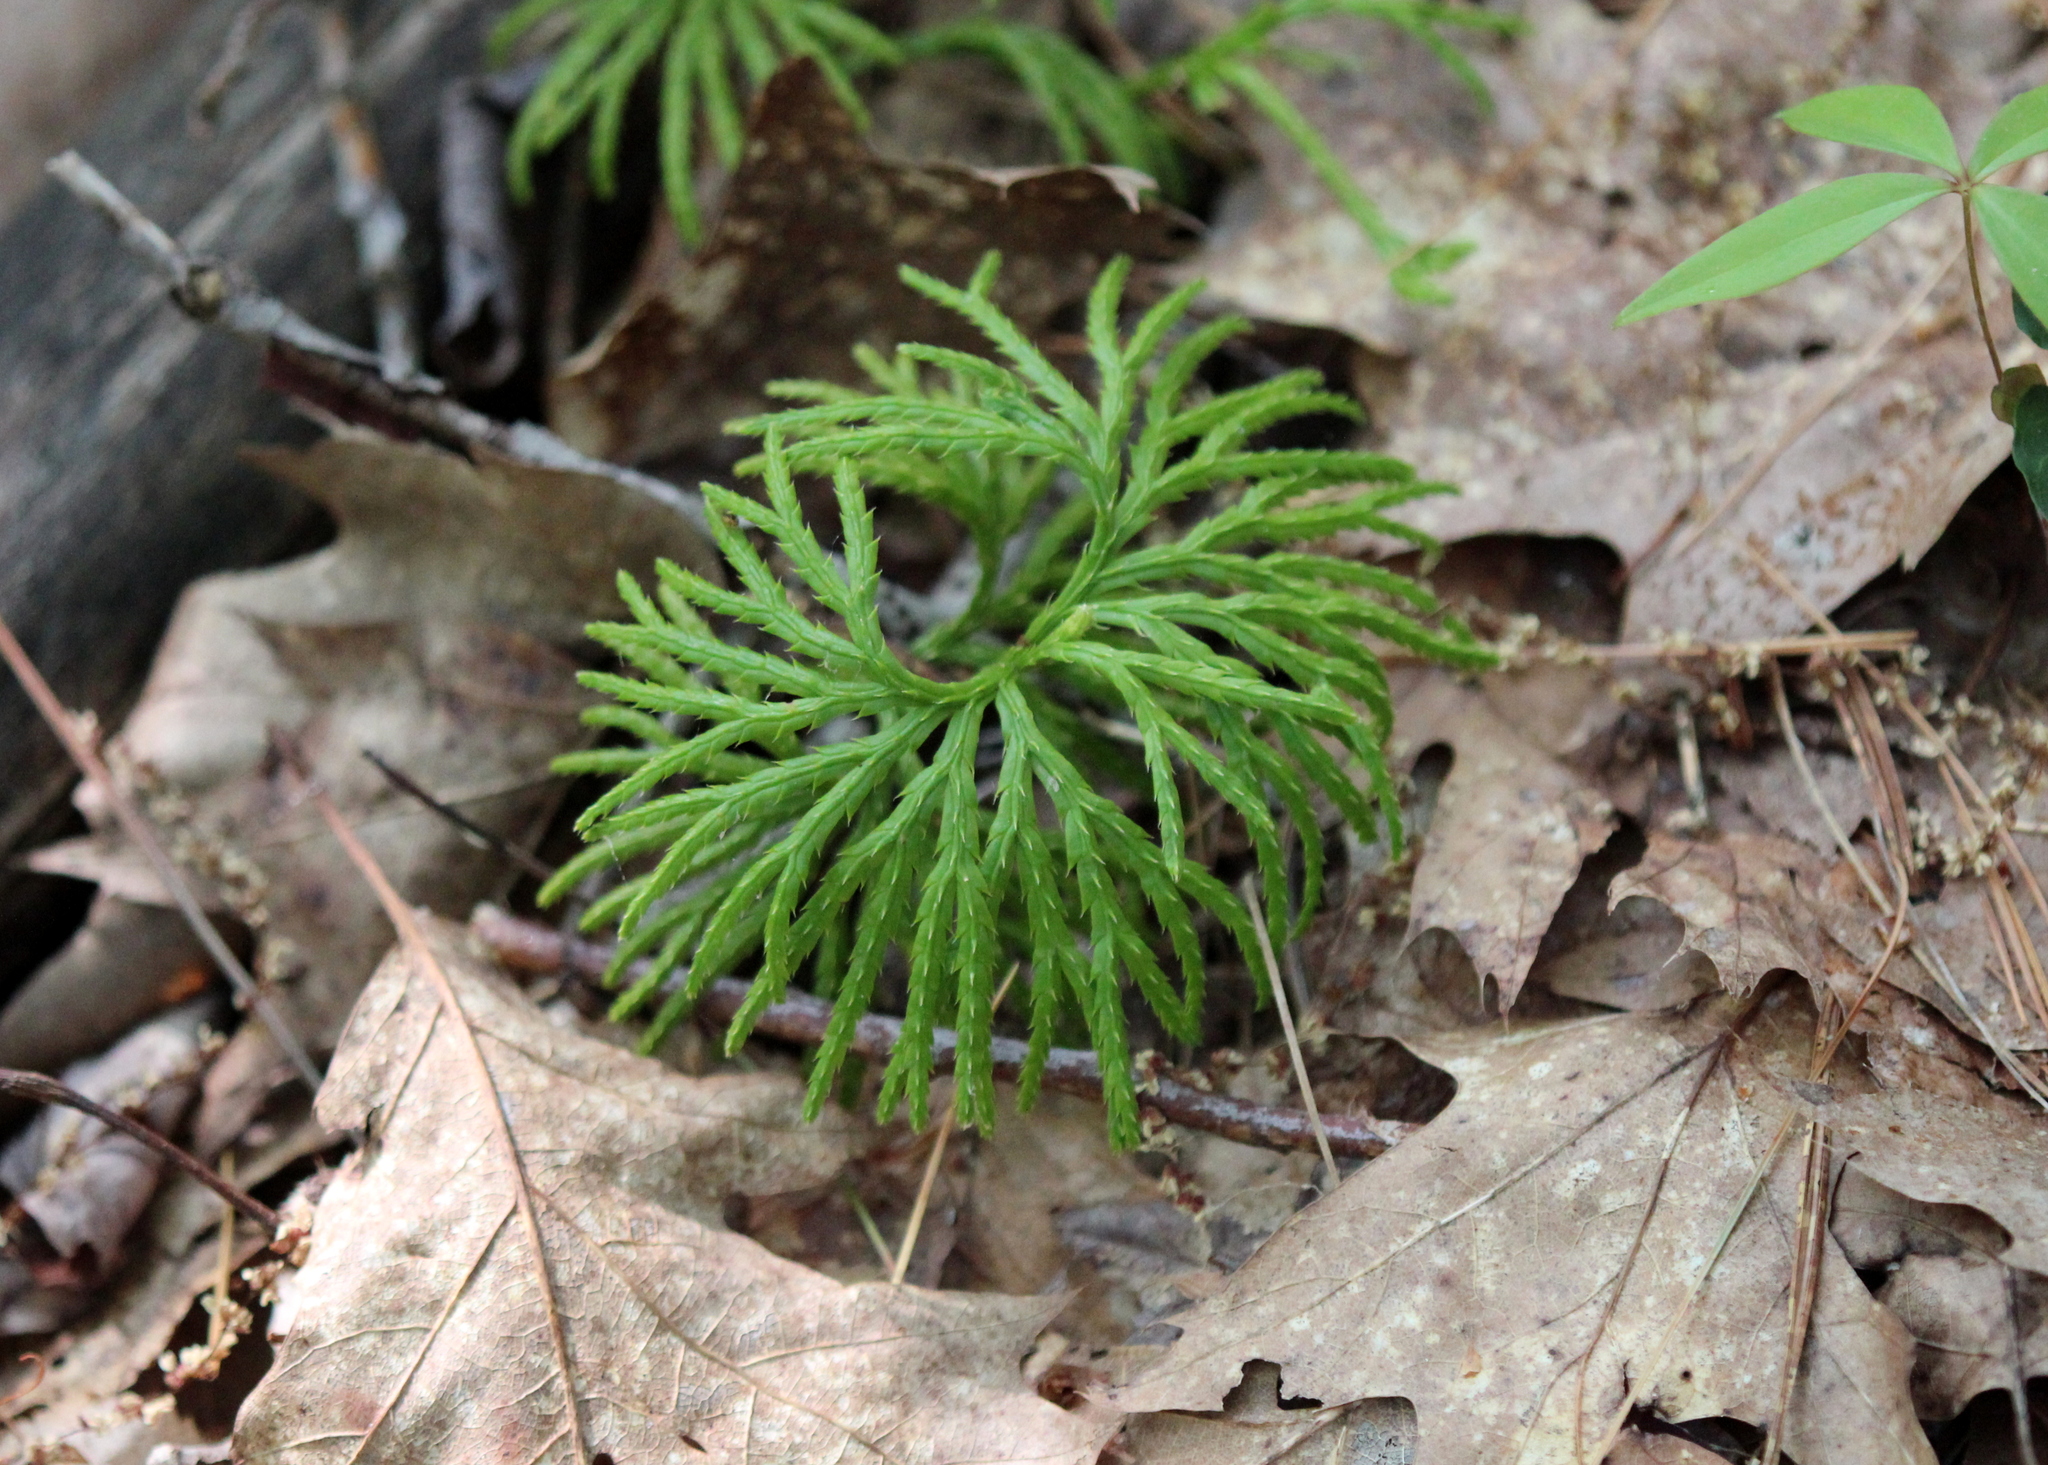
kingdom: Plantae
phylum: Tracheophyta
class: Lycopodiopsida
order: Lycopodiales
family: Lycopodiaceae
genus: Diphasiastrum
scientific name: Diphasiastrum digitatum
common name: Southern running-pine
